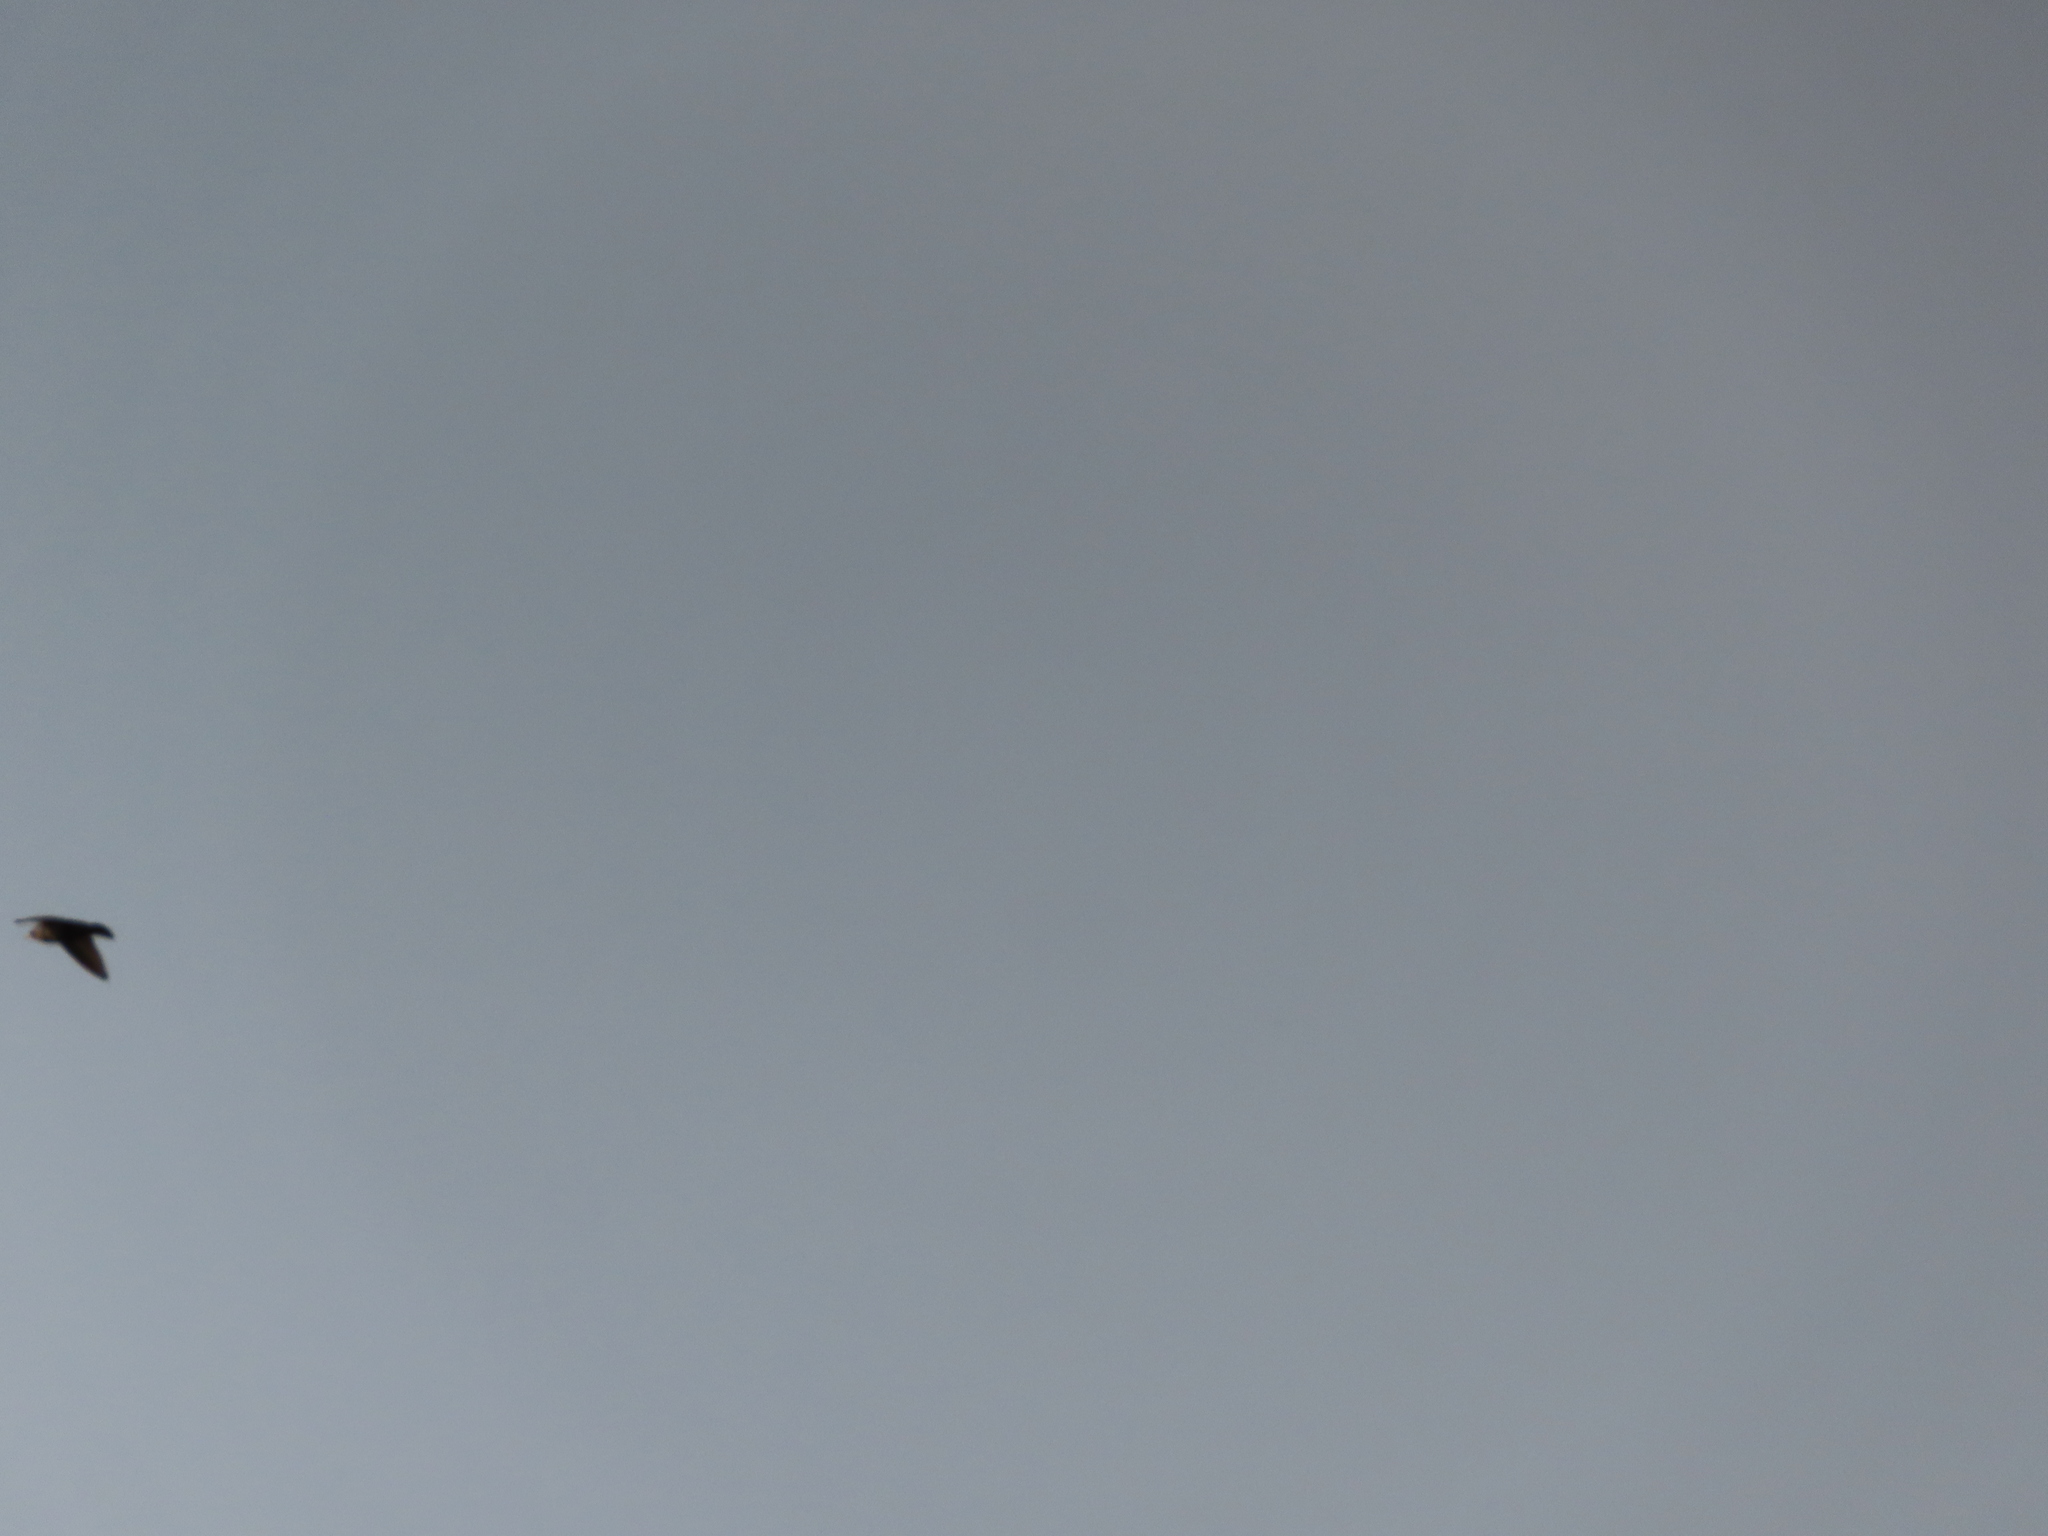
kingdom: Animalia
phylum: Chordata
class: Aves
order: Apodiformes
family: Apodidae
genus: Chaetura
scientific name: Chaetura pelagica
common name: Chimney swift
